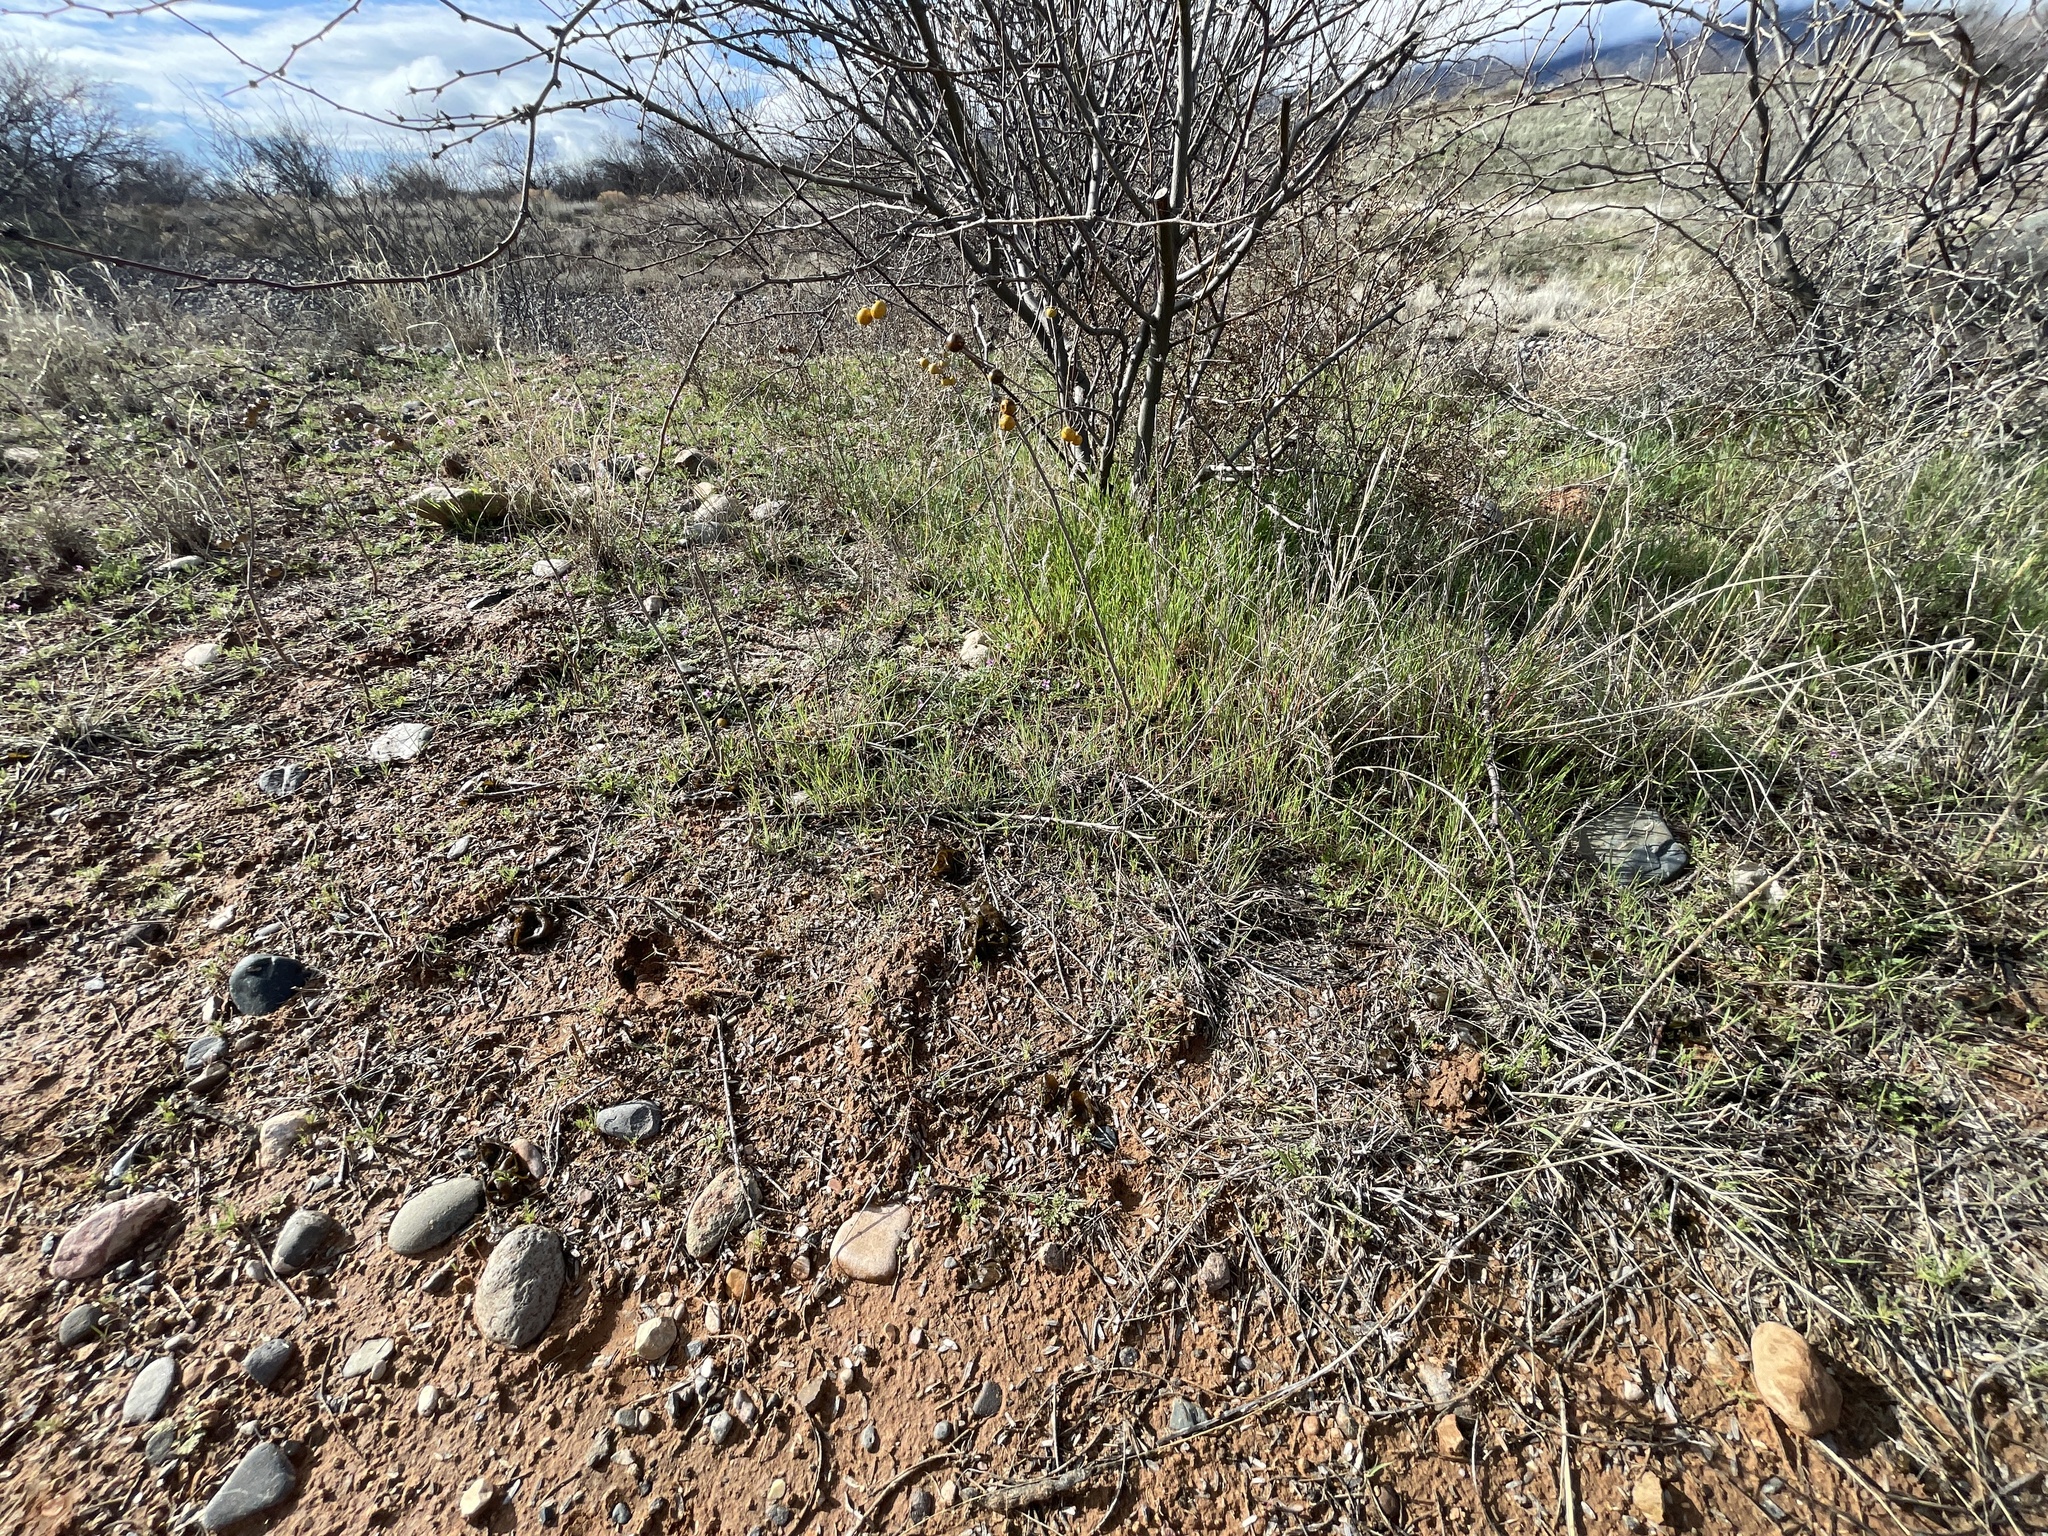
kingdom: Bacteria
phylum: Cyanobacteria
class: Cyanobacteriia
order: Cyanobacteriales
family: Nostocaceae
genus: Nostoc
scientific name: Nostoc commune
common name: Star jelly
